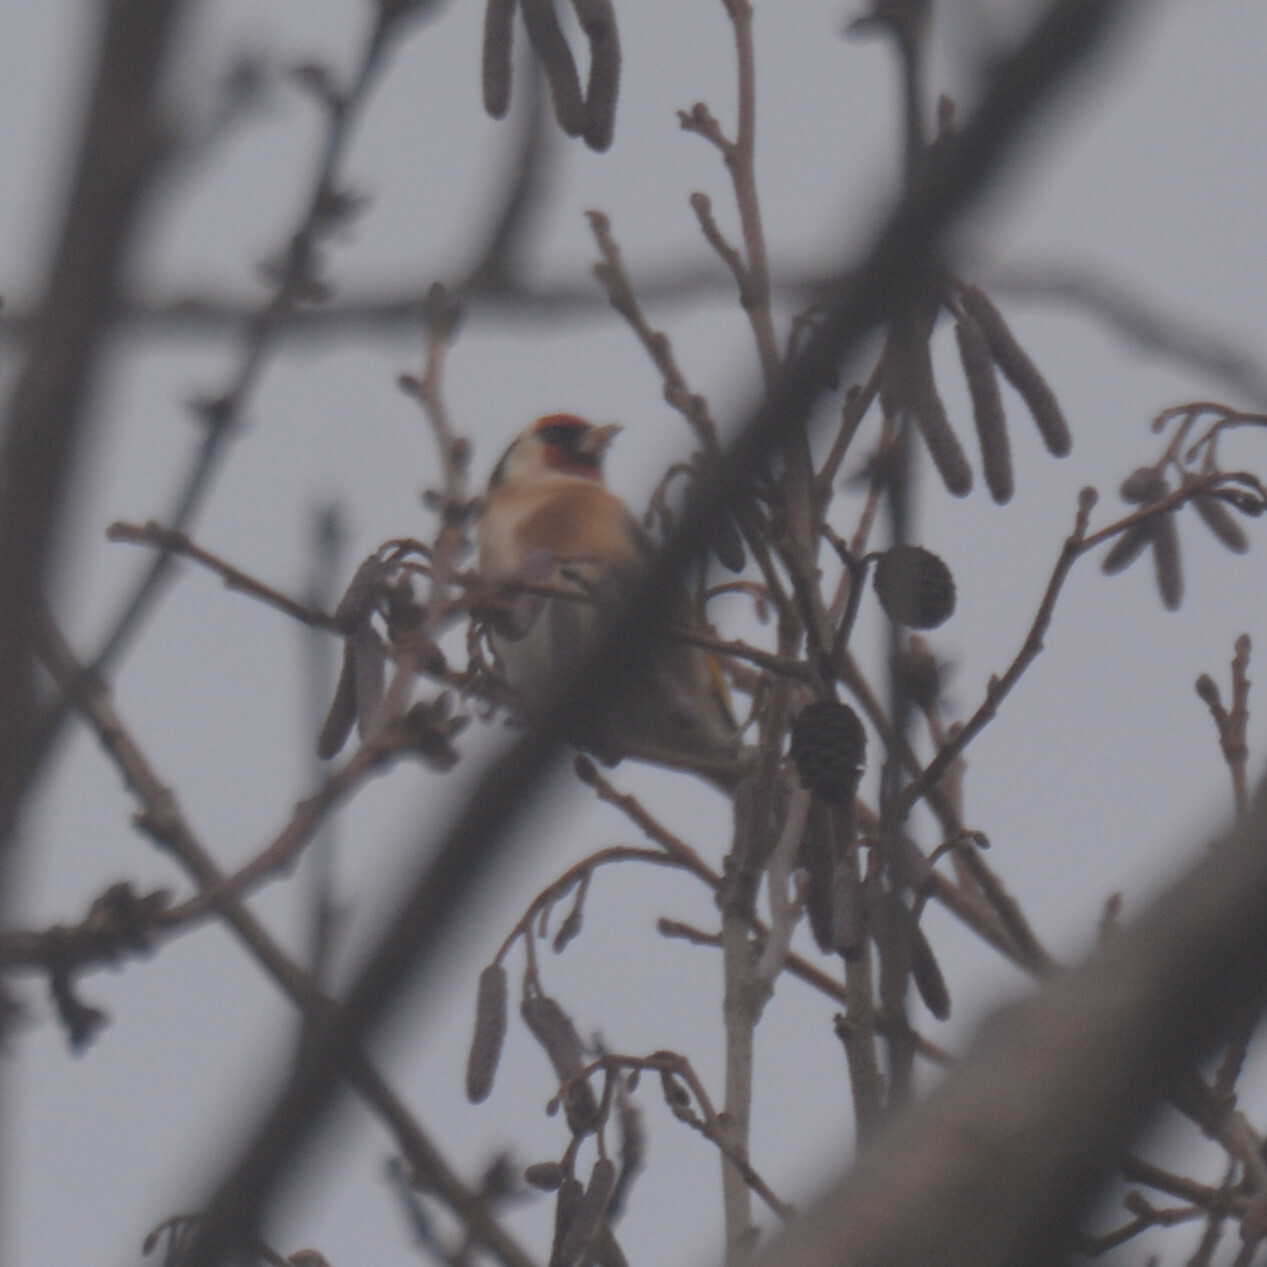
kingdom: Animalia
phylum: Chordata
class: Aves
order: Passeriformes
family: Fringillidae
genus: Carduelis
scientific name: Carduelis carduelis
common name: European goldfinch
